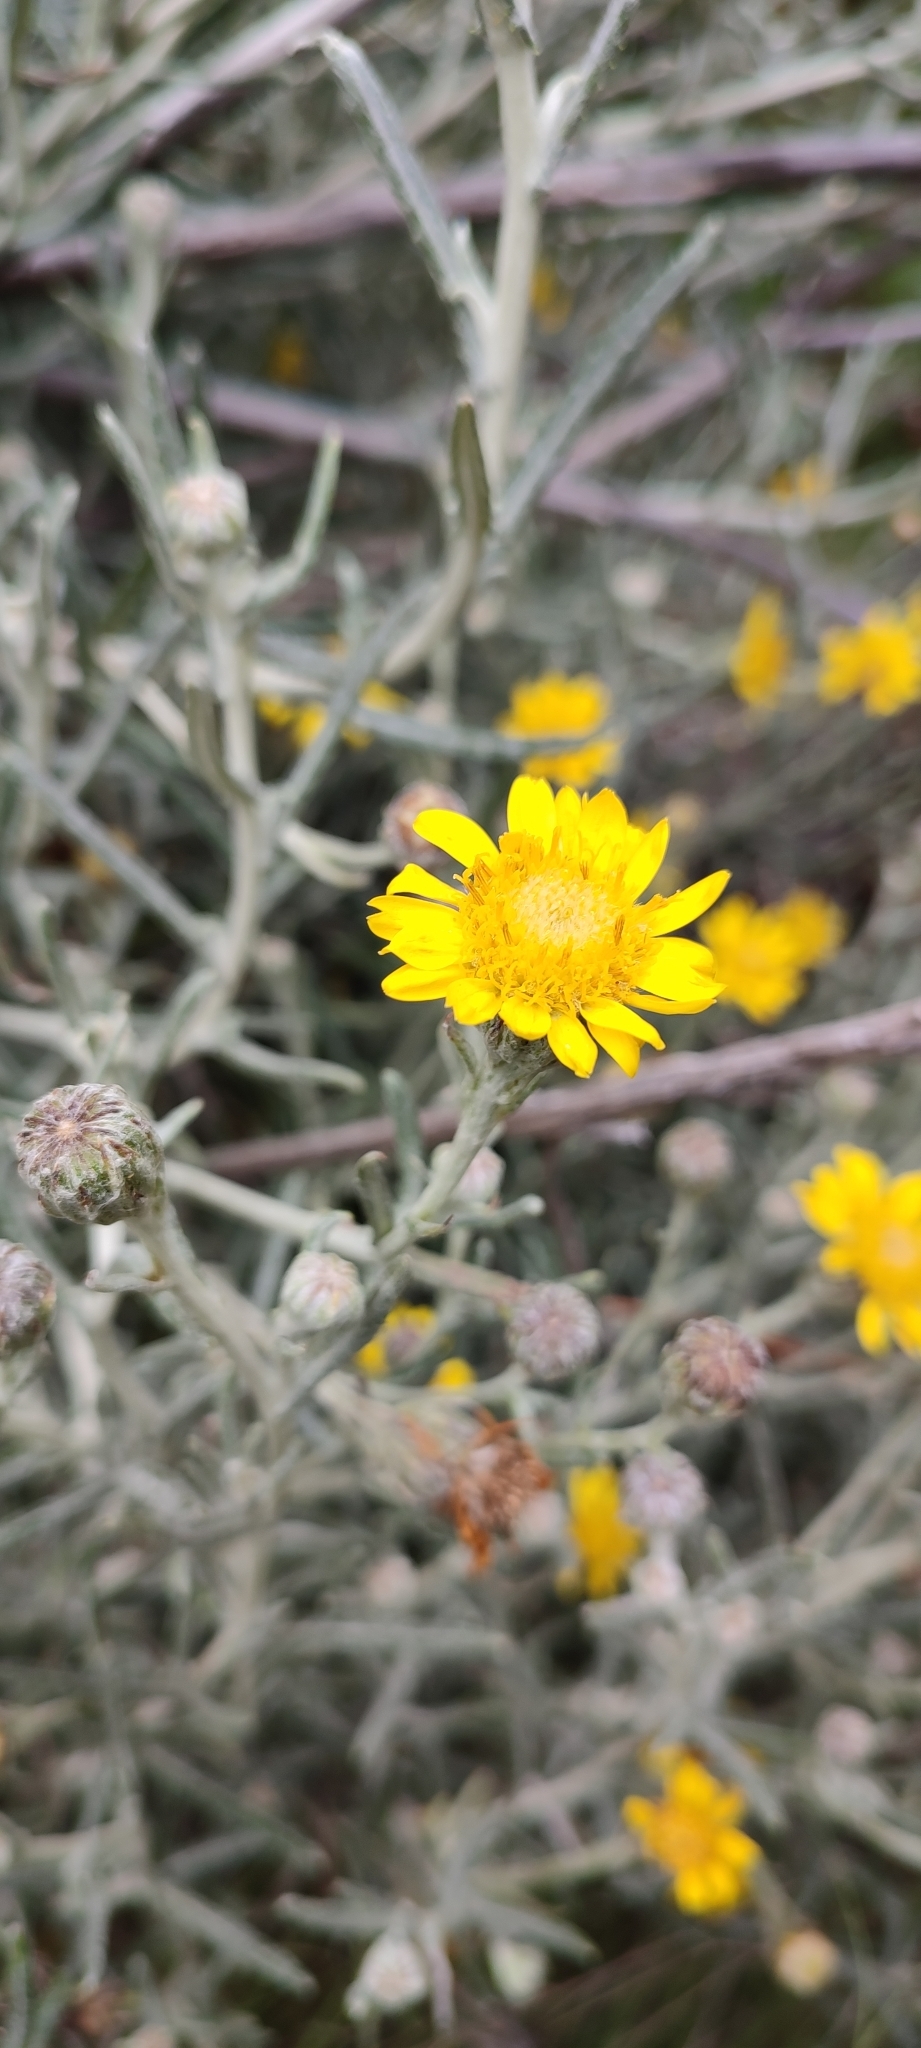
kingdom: Plantae
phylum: Tracheophyta
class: Magnoliopsida
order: Asterales
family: Asteraceae
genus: Senecio
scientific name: Senecio mairetianus
